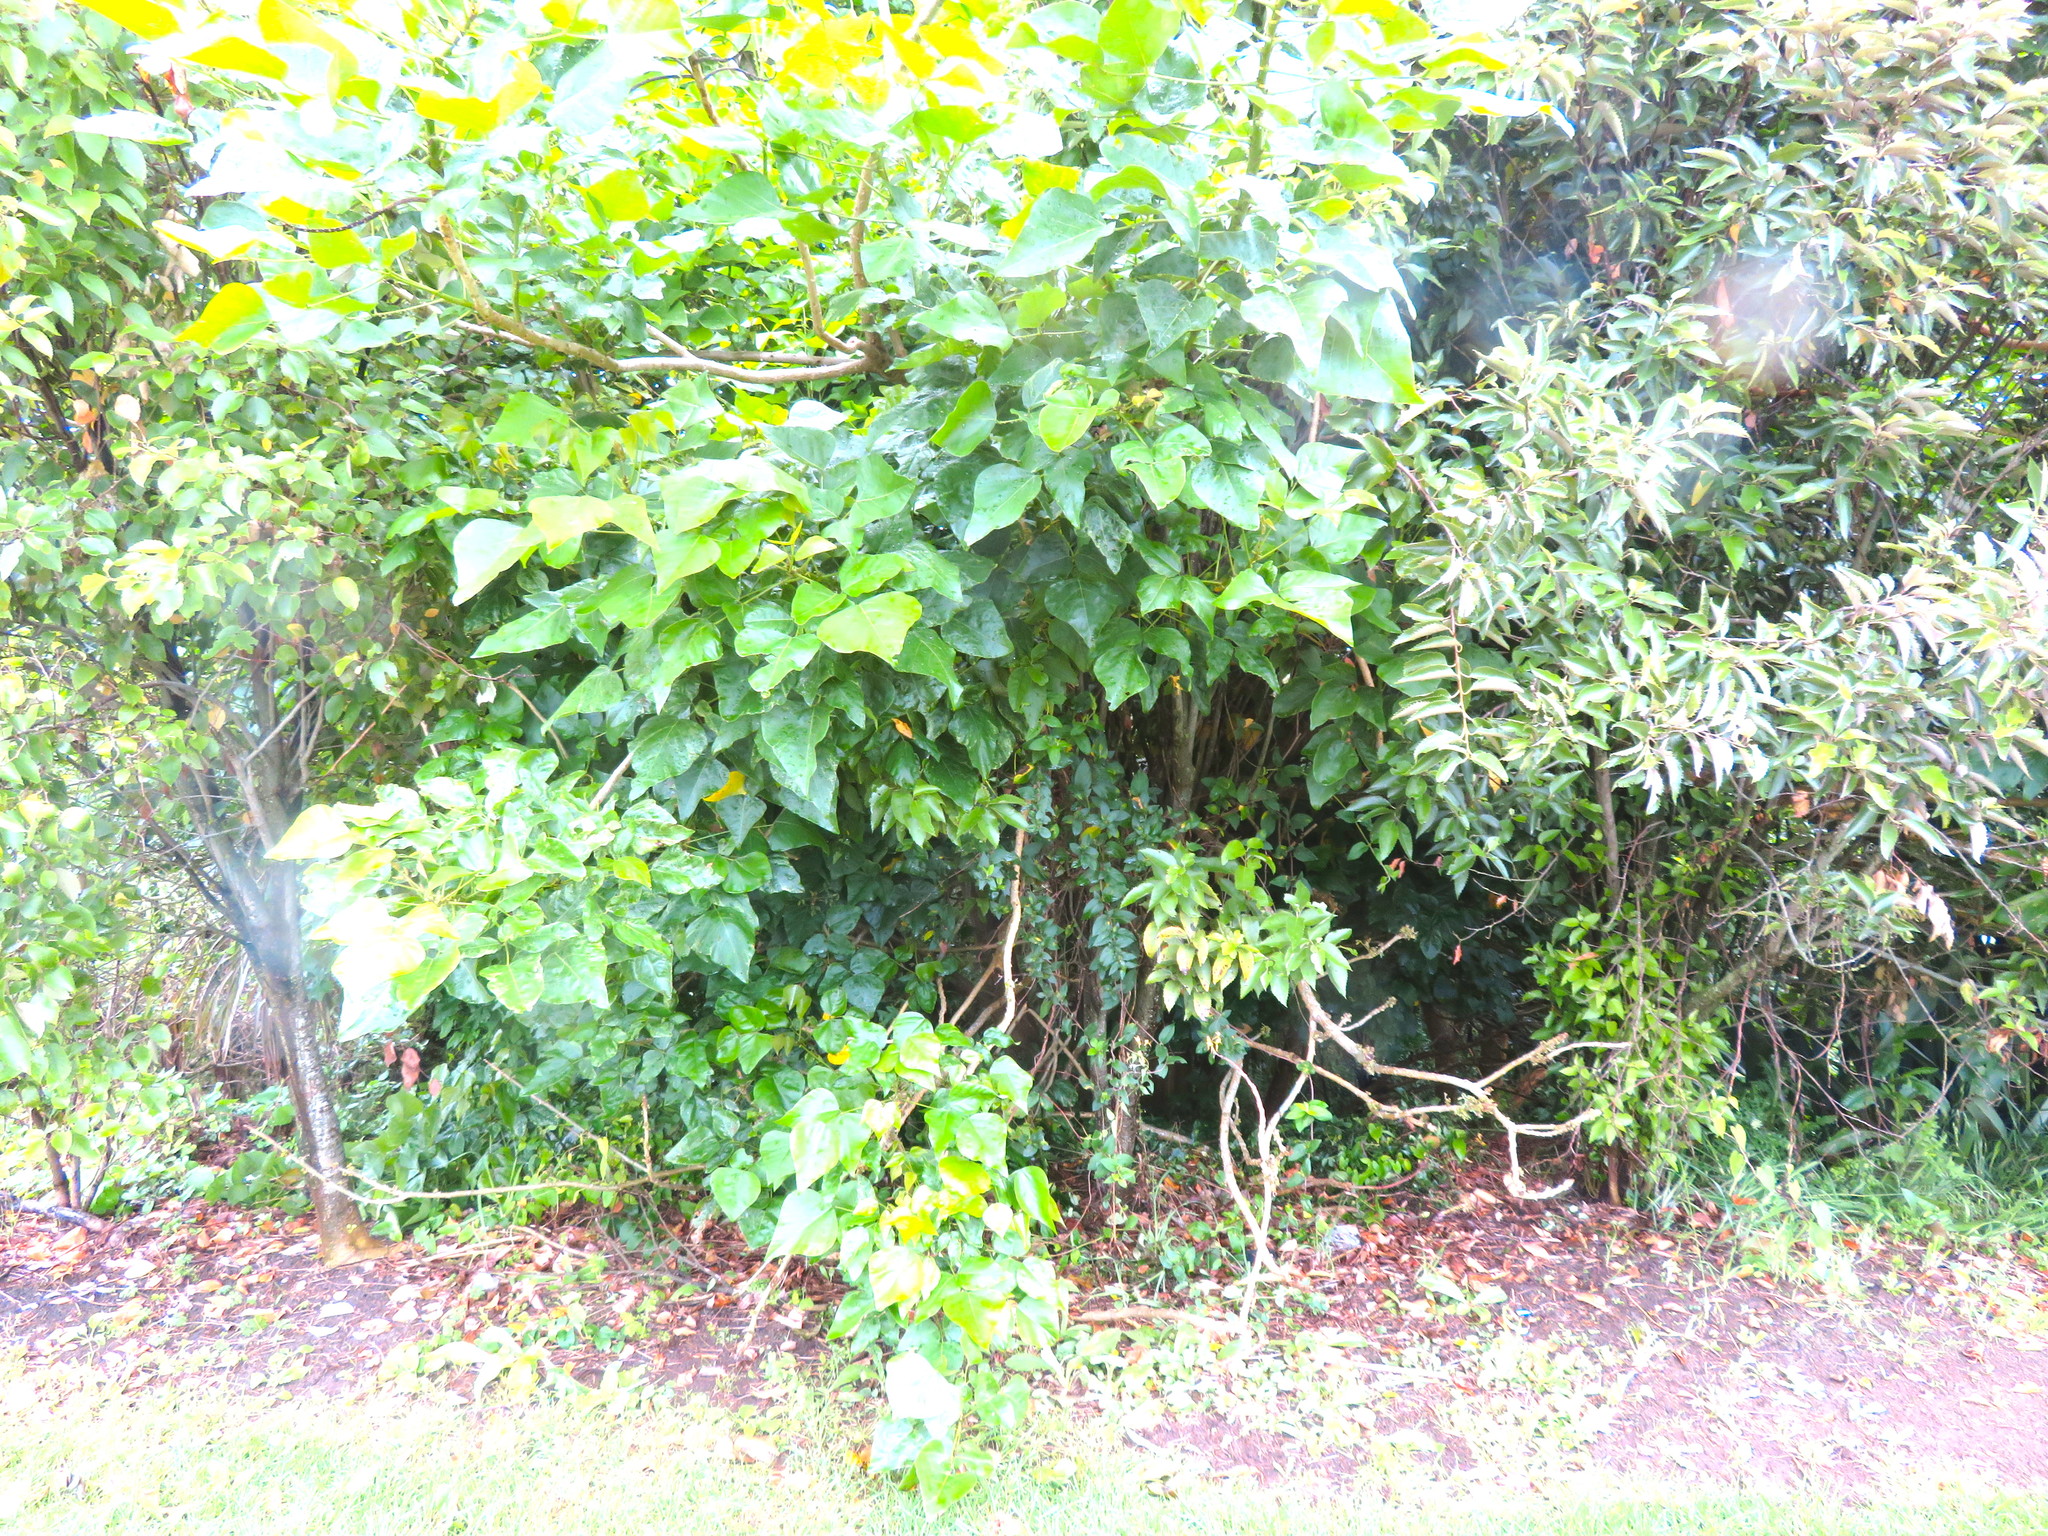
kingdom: Plantae
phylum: Tracheophyta
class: Magnoliopsida
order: Fabales
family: Fabaceae
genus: Erythrina
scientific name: Erythrina sykesii
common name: Coraltree
